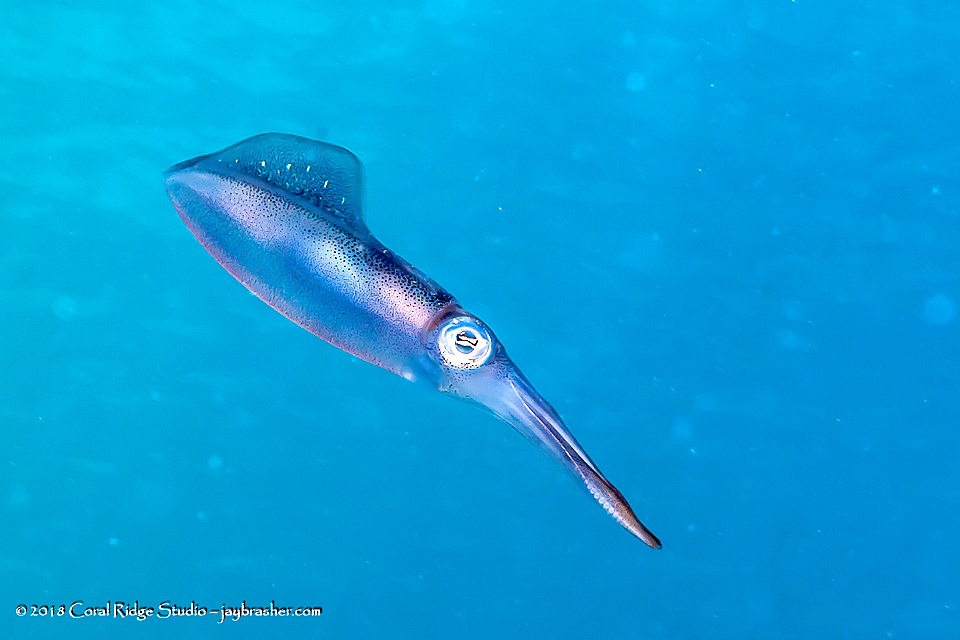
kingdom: Animalia
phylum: Mollusca
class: Cephalopoda
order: Myopsida
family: Loliginidae
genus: Sepioteuthis
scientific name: Sepioteuthis sepioidea
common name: Caribbean reef squid
